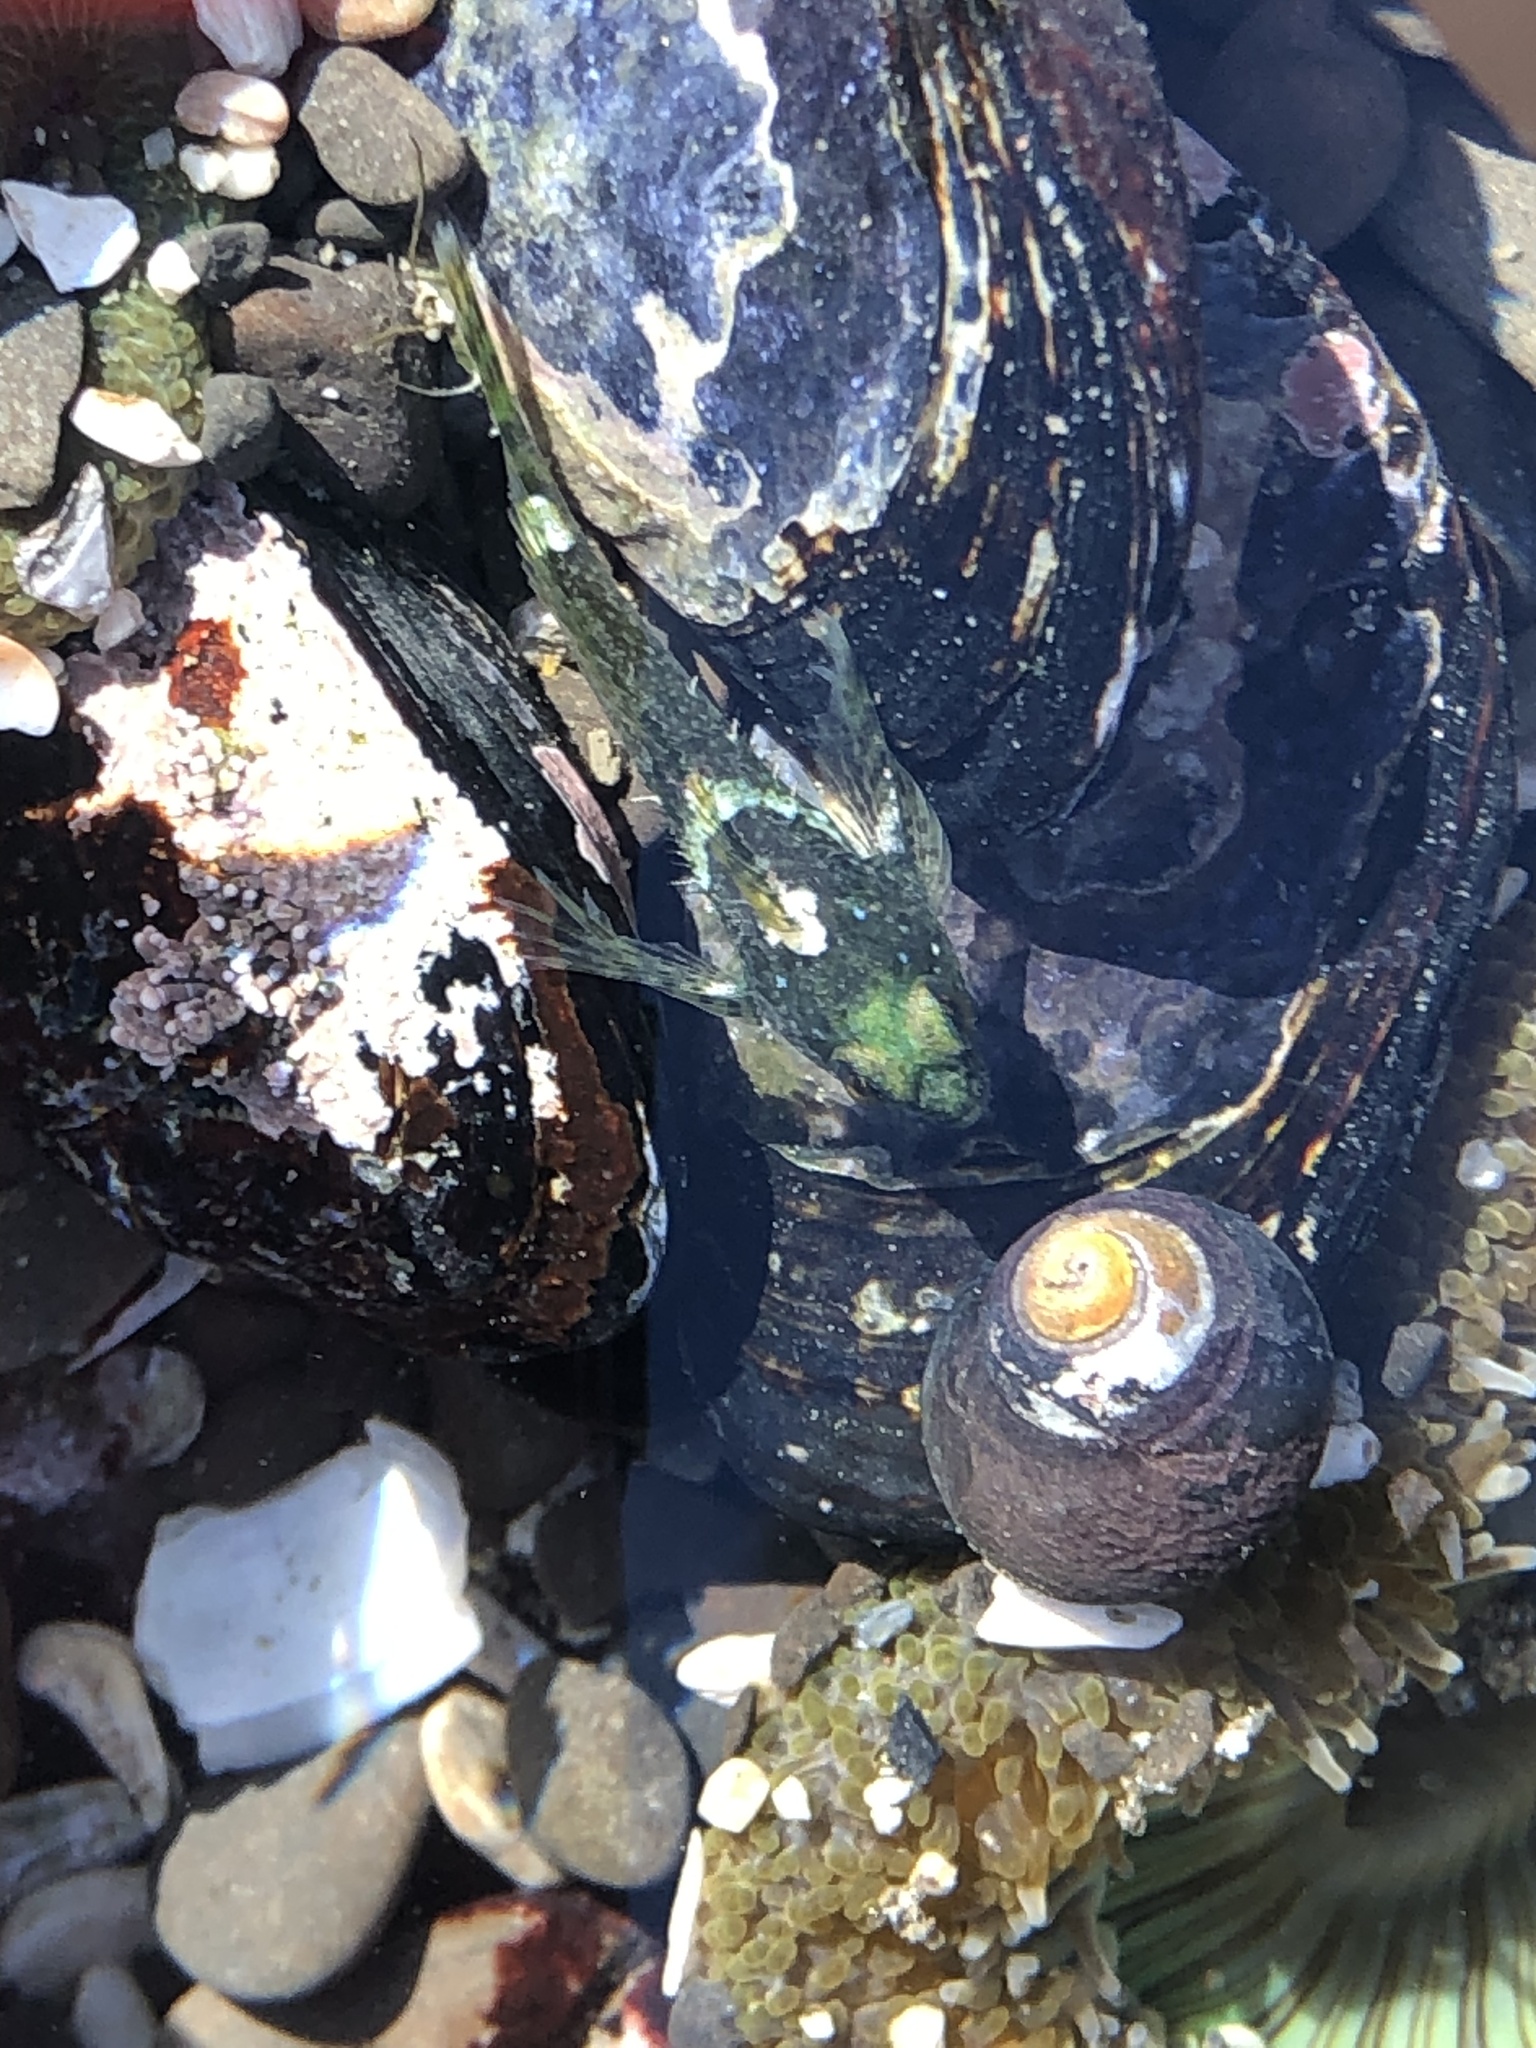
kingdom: Animalia
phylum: Chordata
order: Scorpaeniformes
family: Cottidae
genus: Clinocottus
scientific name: Clinocottus analis
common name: Woolly sculpin
